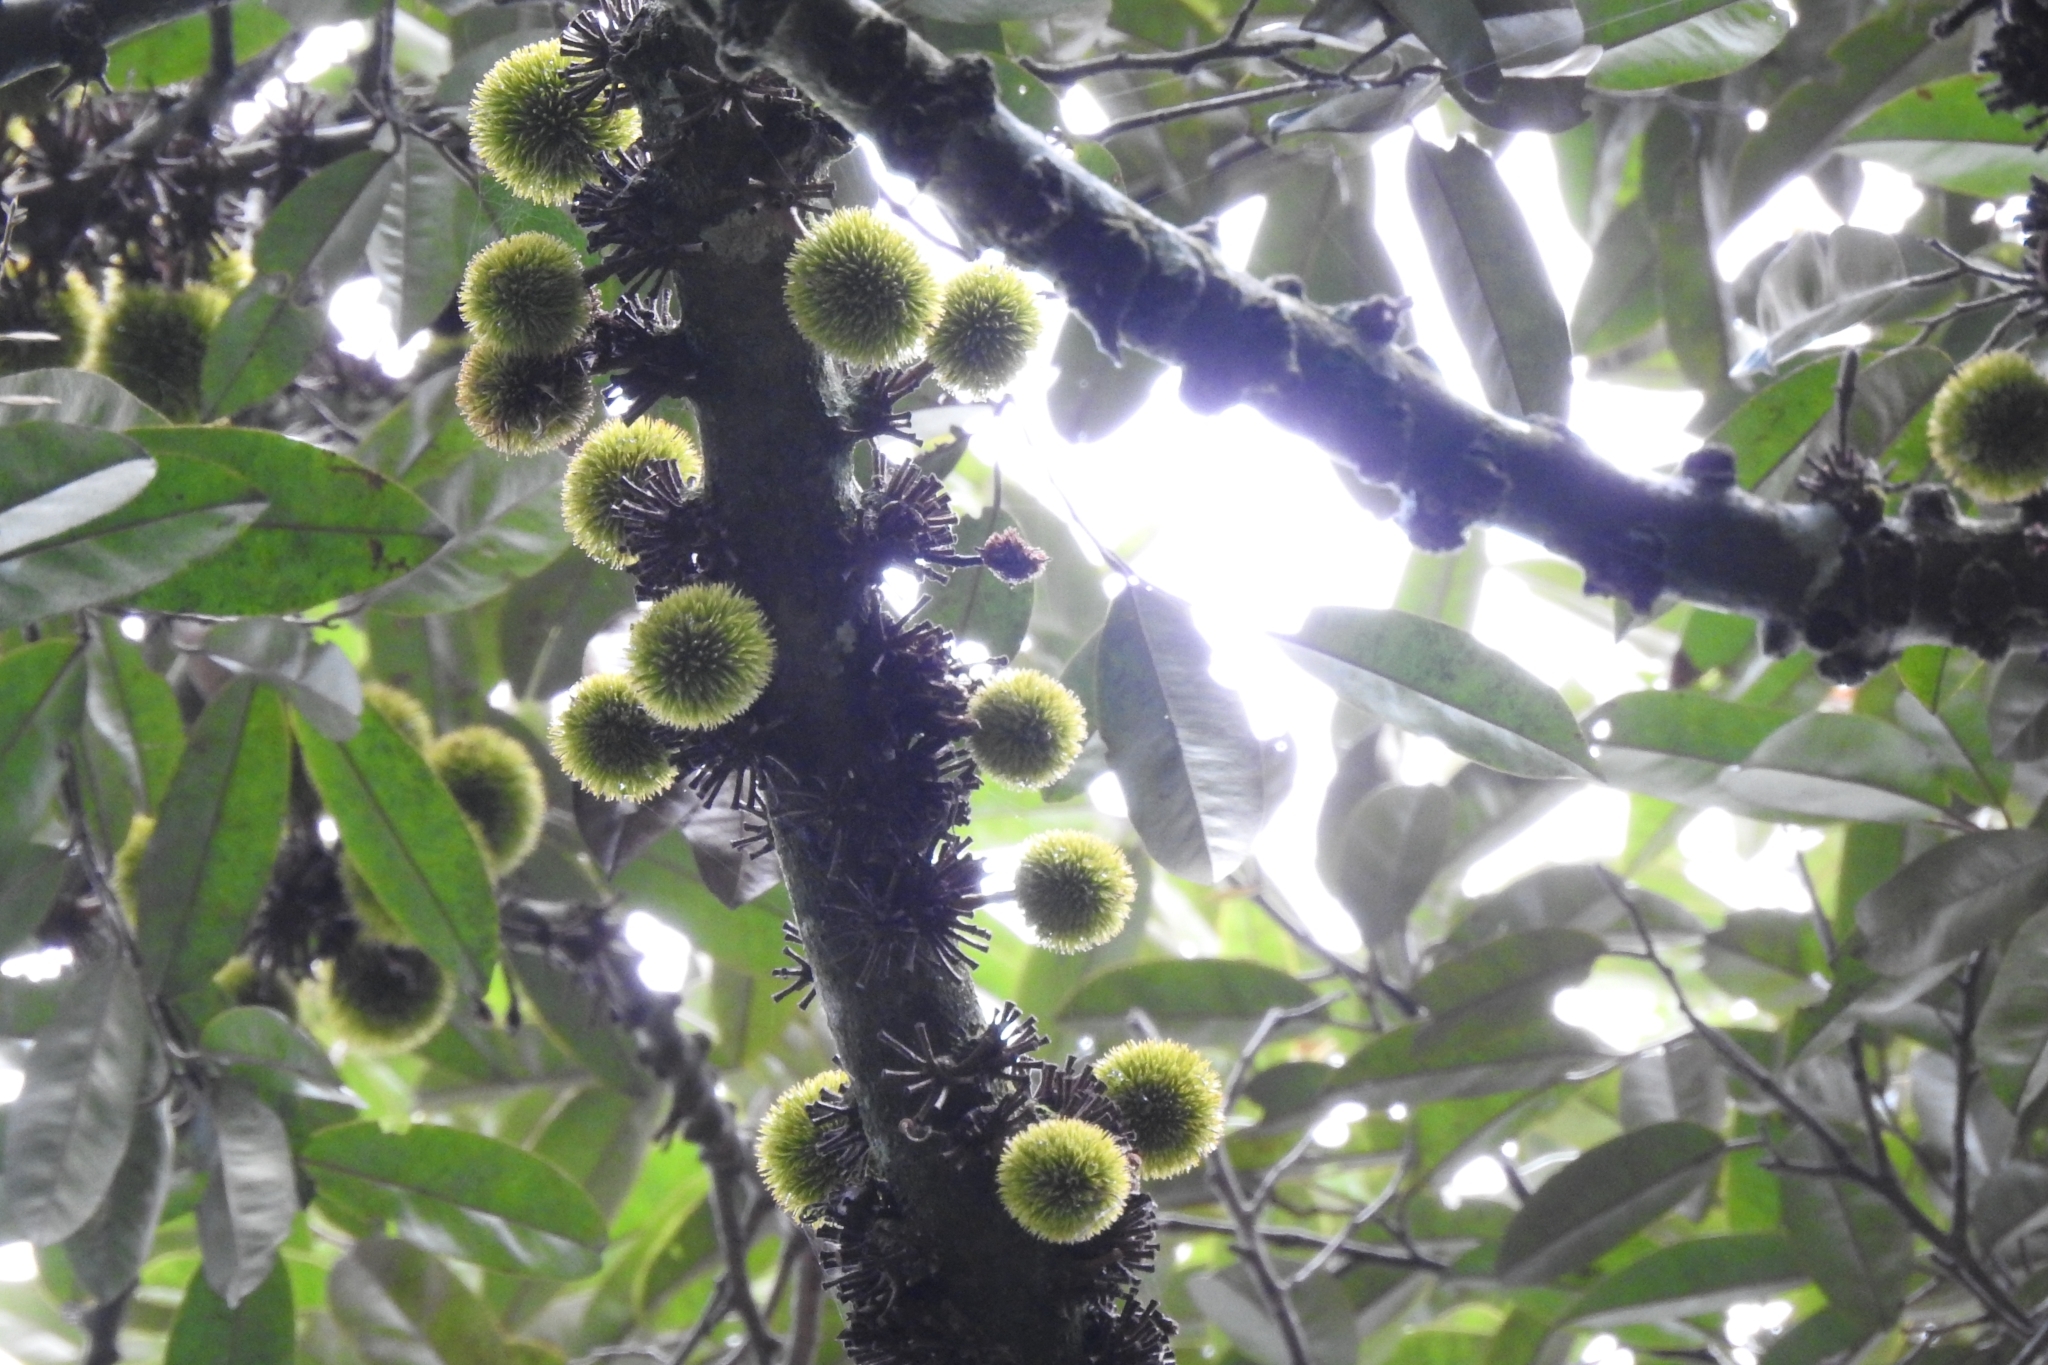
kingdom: Plantae
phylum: Tracheophyta
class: Magnoliopsida
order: Malvales
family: Malvaceae
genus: Cullenia
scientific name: Cullenia exarillata
